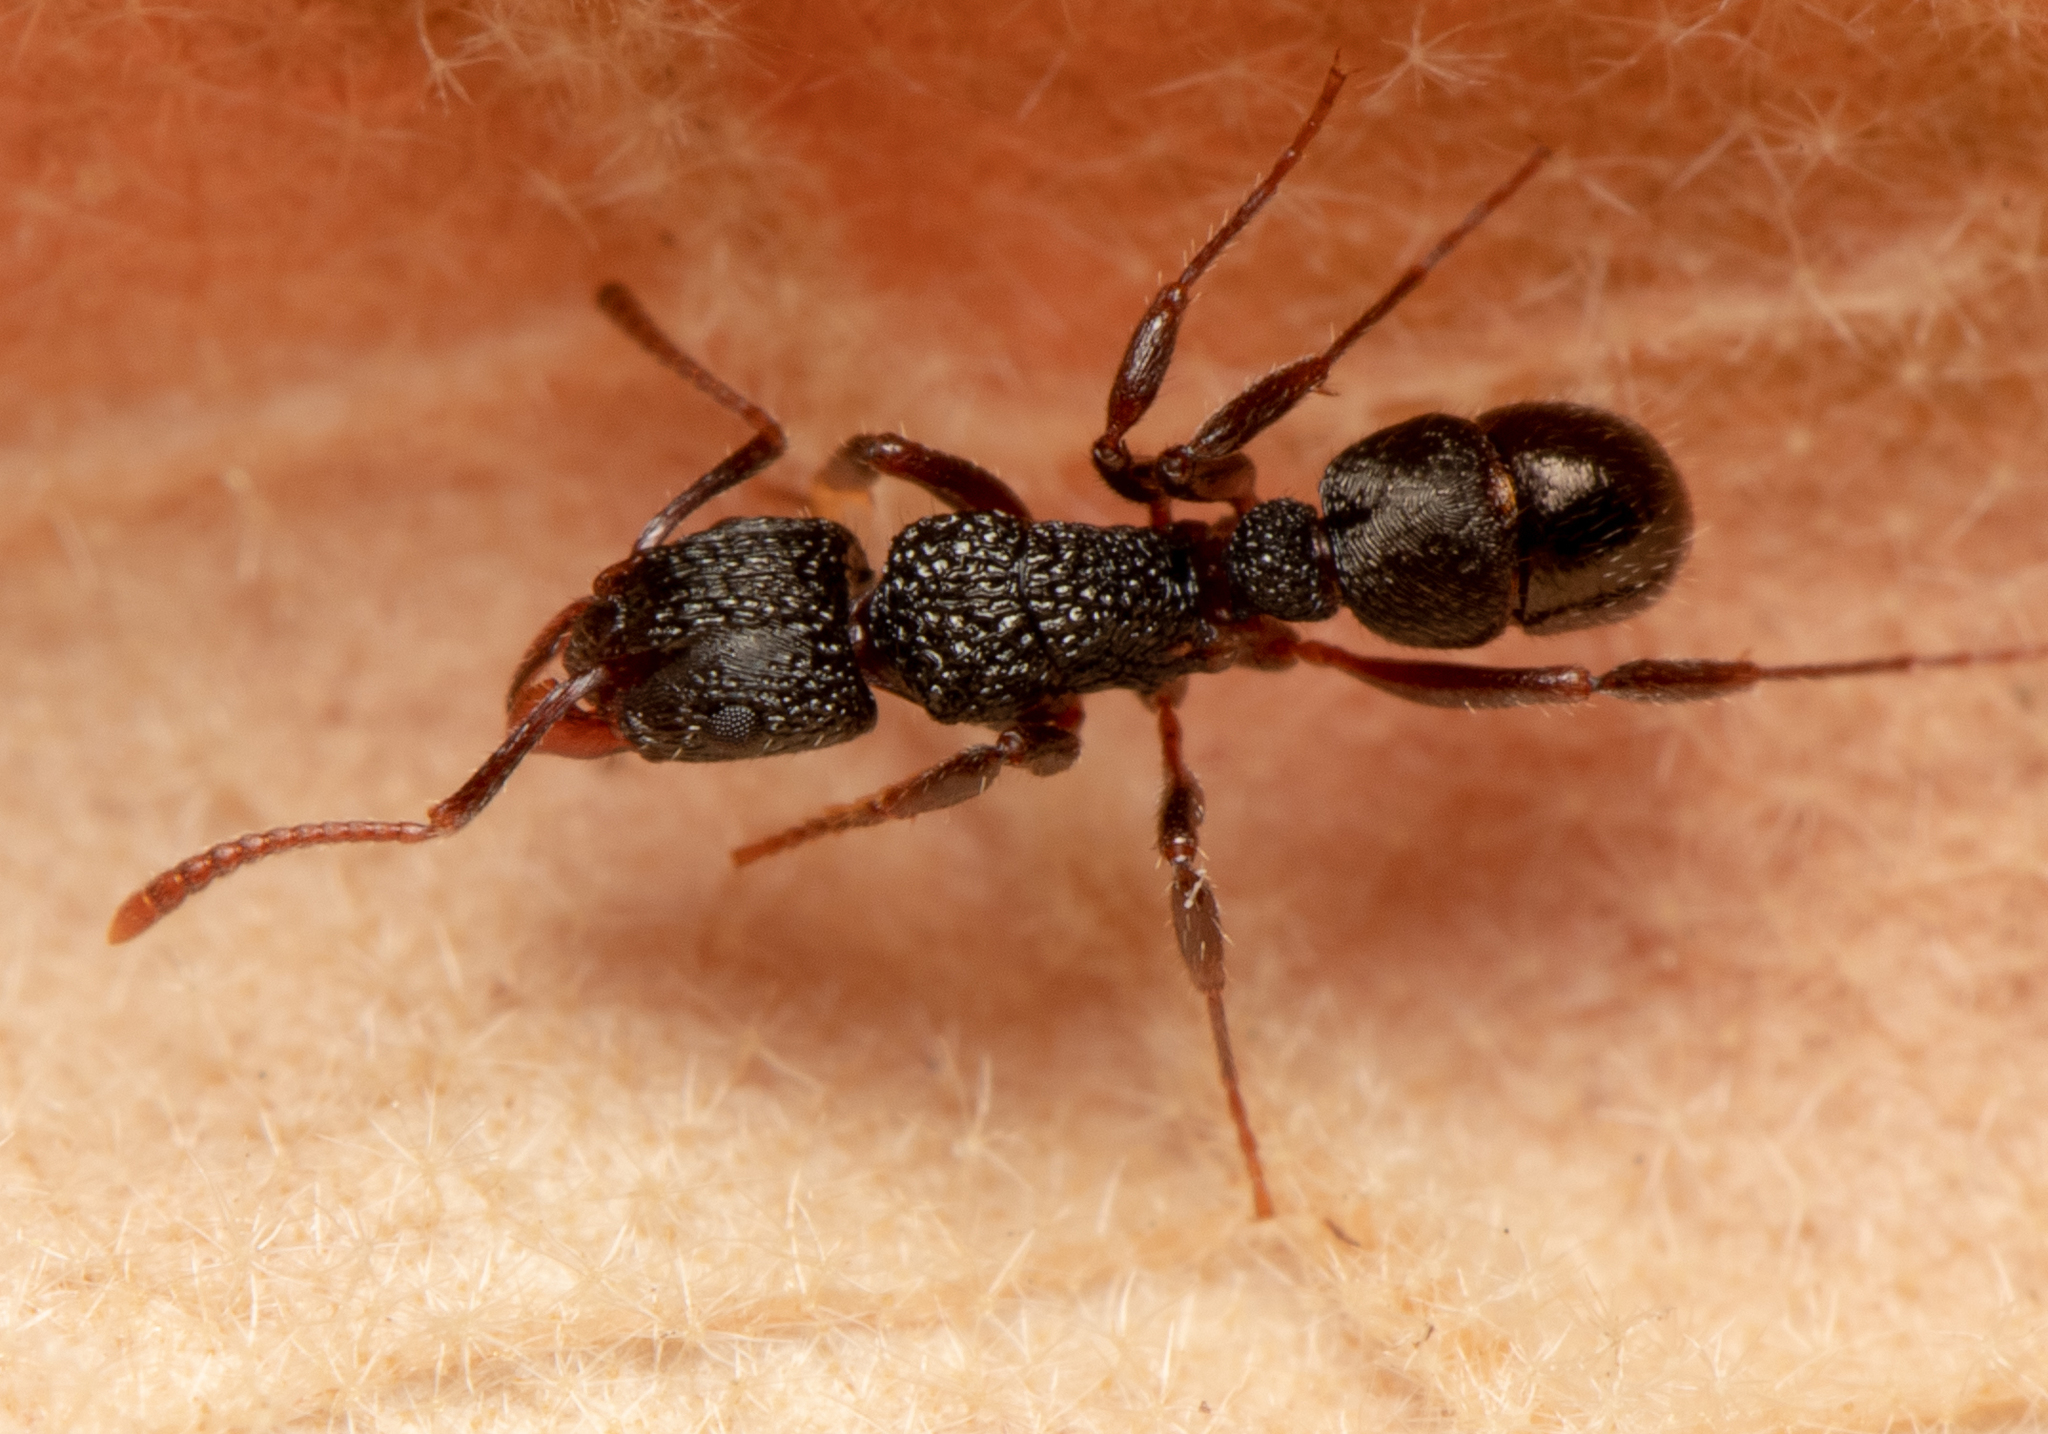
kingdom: Animalia
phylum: Arthropoda
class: Insecta
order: Hymenoptera
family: Formicidae
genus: Rhytidoponera
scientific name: Rhytidoponera victoriae
